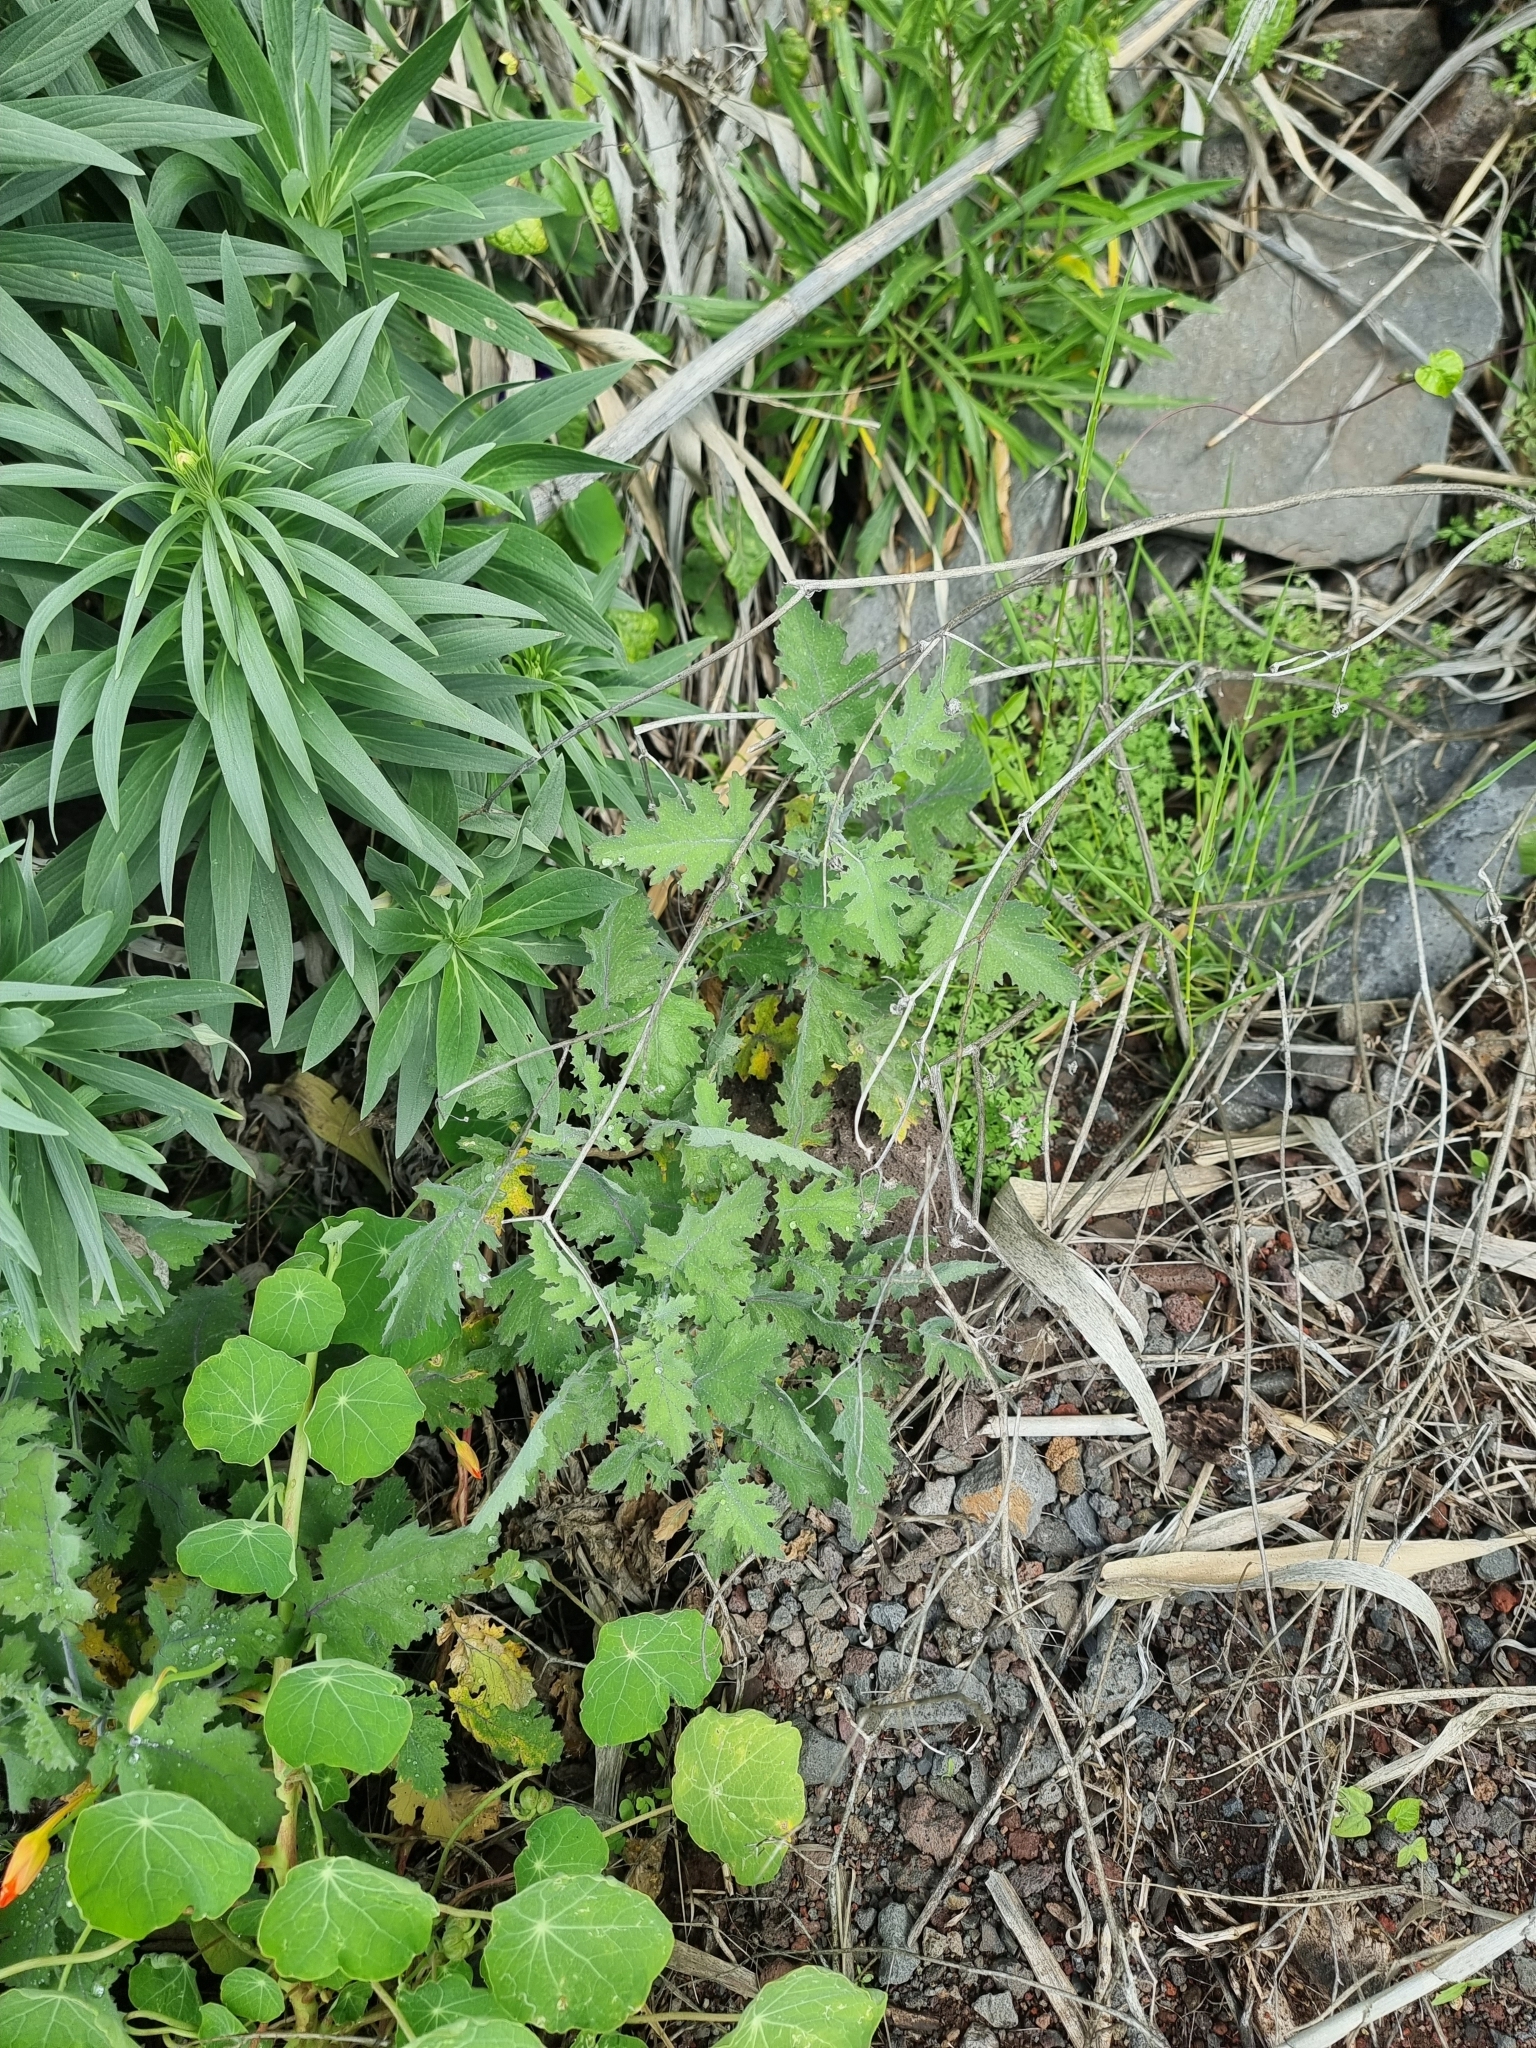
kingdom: Plantae
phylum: Tracheophyta
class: Magnoliopsida
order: Brassicales
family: Brassicaceae
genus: Crambe
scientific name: Crambe fruticosa
